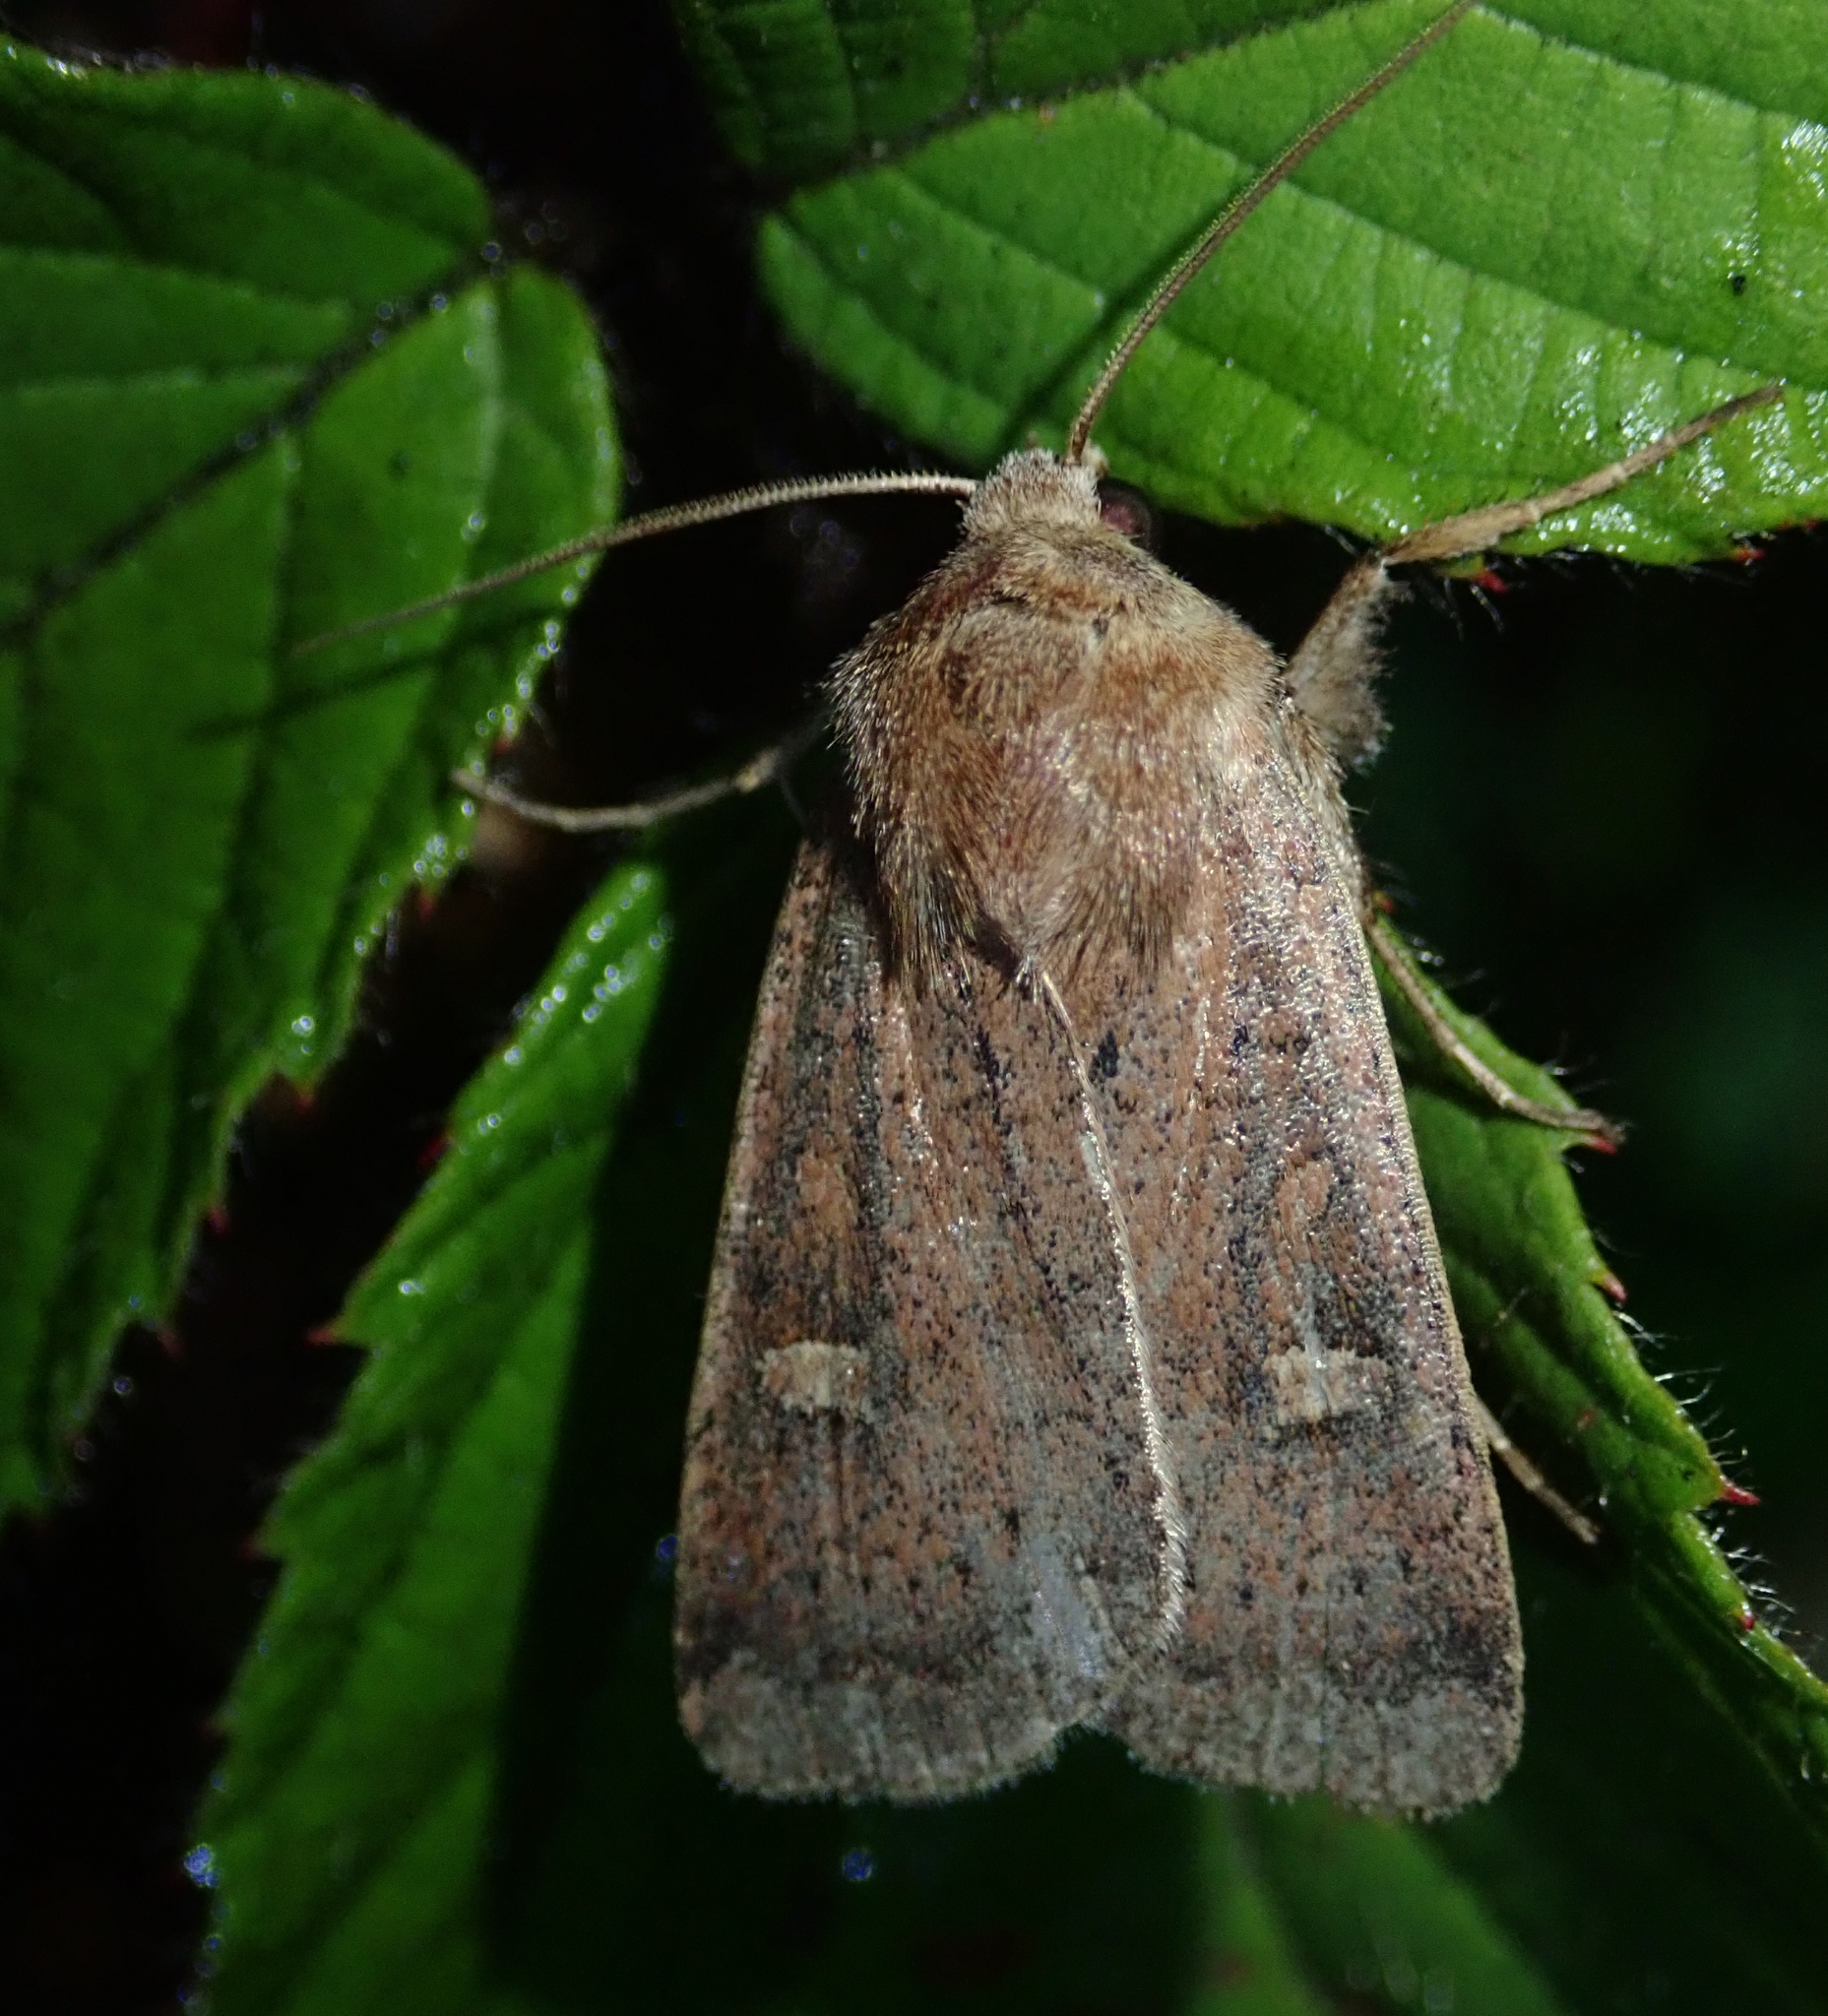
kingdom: Animalia
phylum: Arthropoda
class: Insecta
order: Lepidoptera
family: Noctuidae
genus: Xestia
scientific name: Xestia xanthographa
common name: Square-spot rustic
